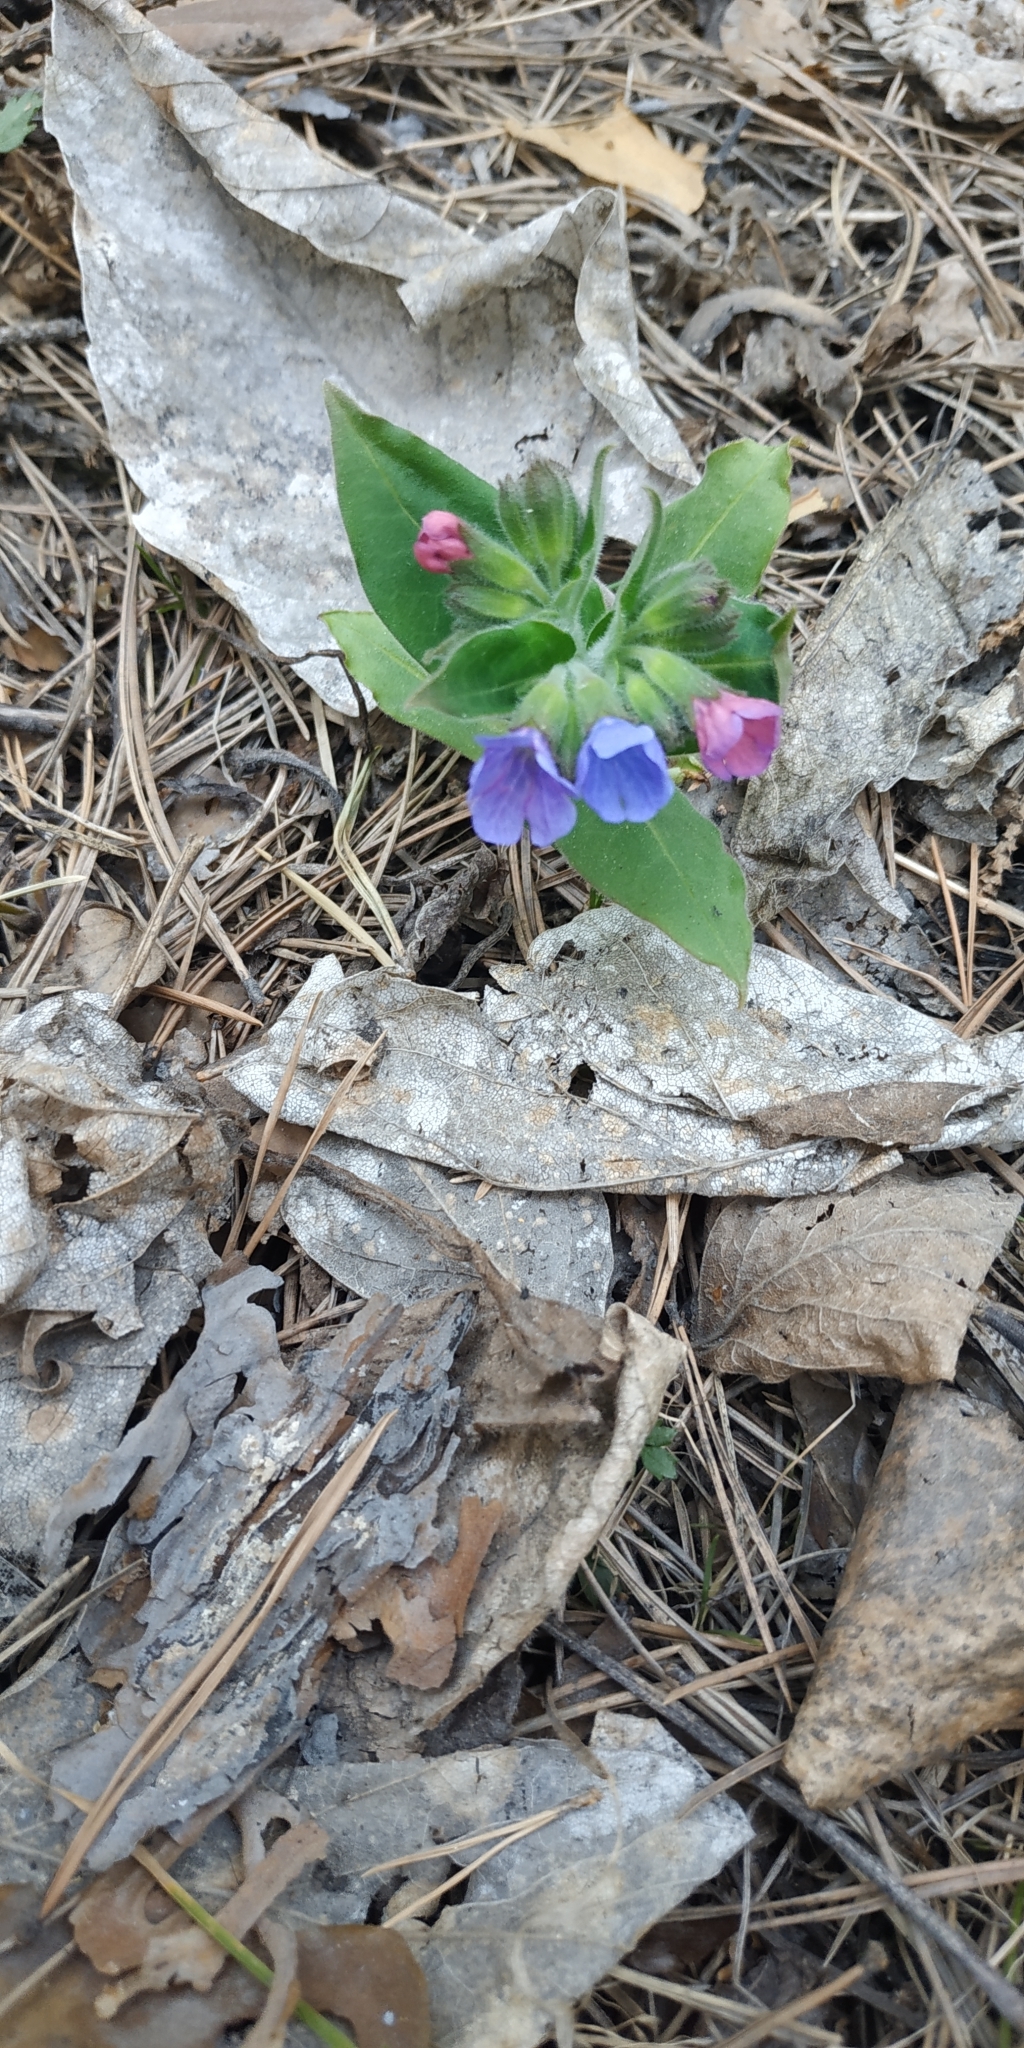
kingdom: Plantae
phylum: Tracheophyta
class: Magnoliopsida
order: Boraginales
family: Boraginaceae
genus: Pulmonaria
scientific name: Pulmonaria mollis
